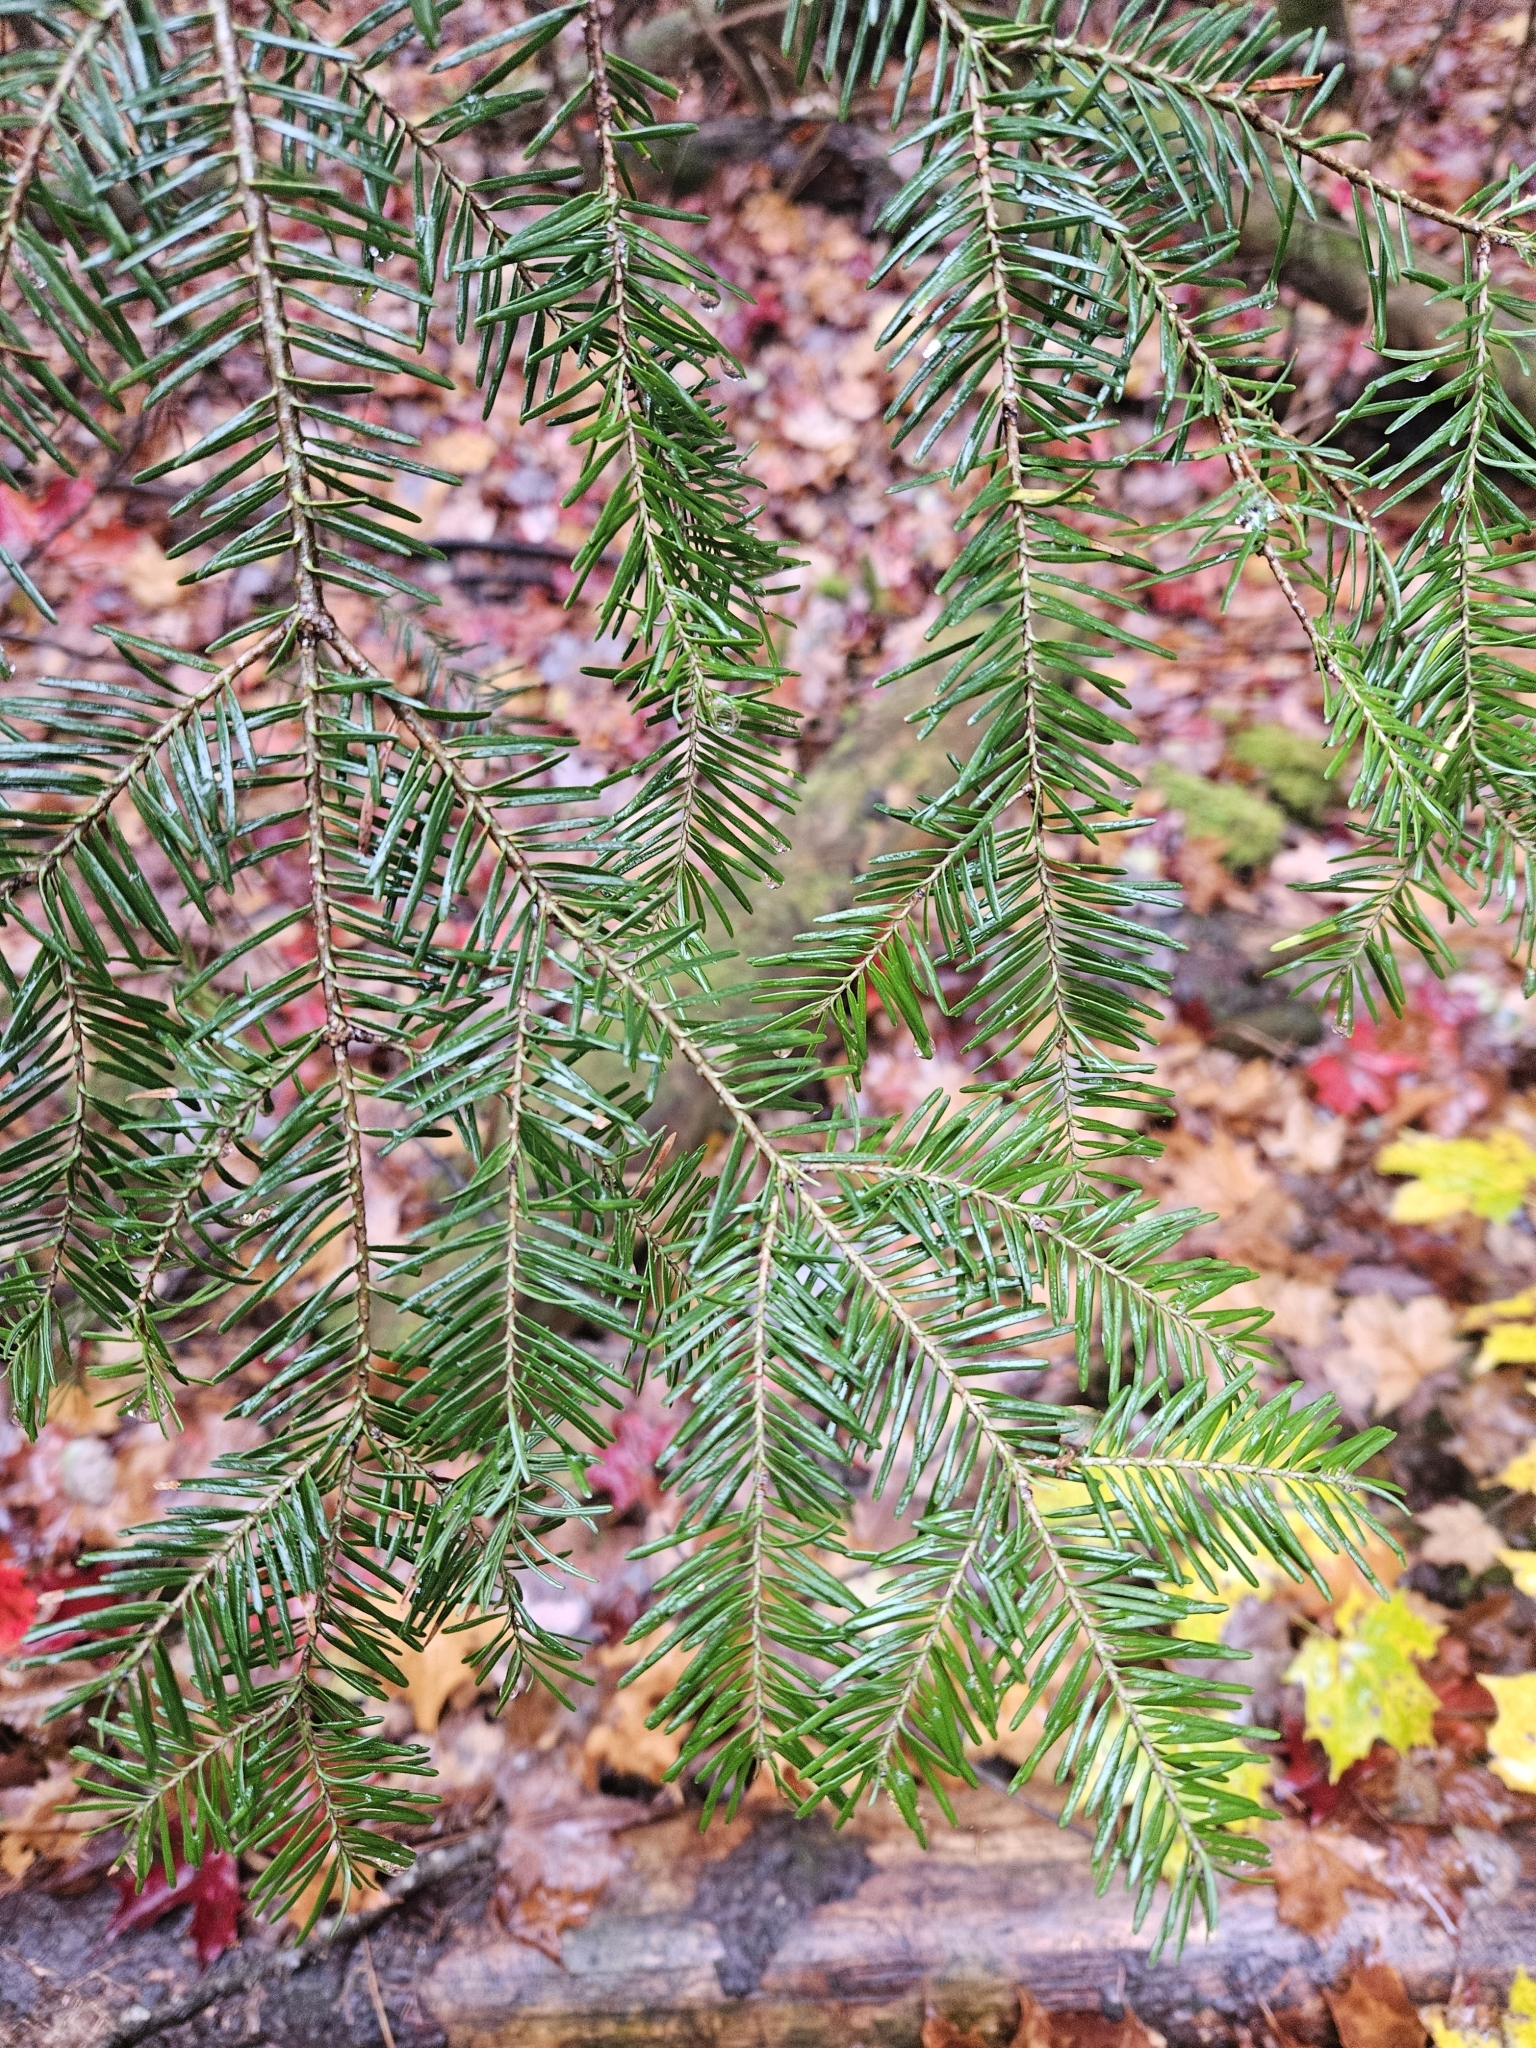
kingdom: Plantae
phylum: Tracheophyta
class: Pinopsida
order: Pinales
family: Pinaceae
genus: Abies
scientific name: Abies balsamea
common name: Balsam fir
